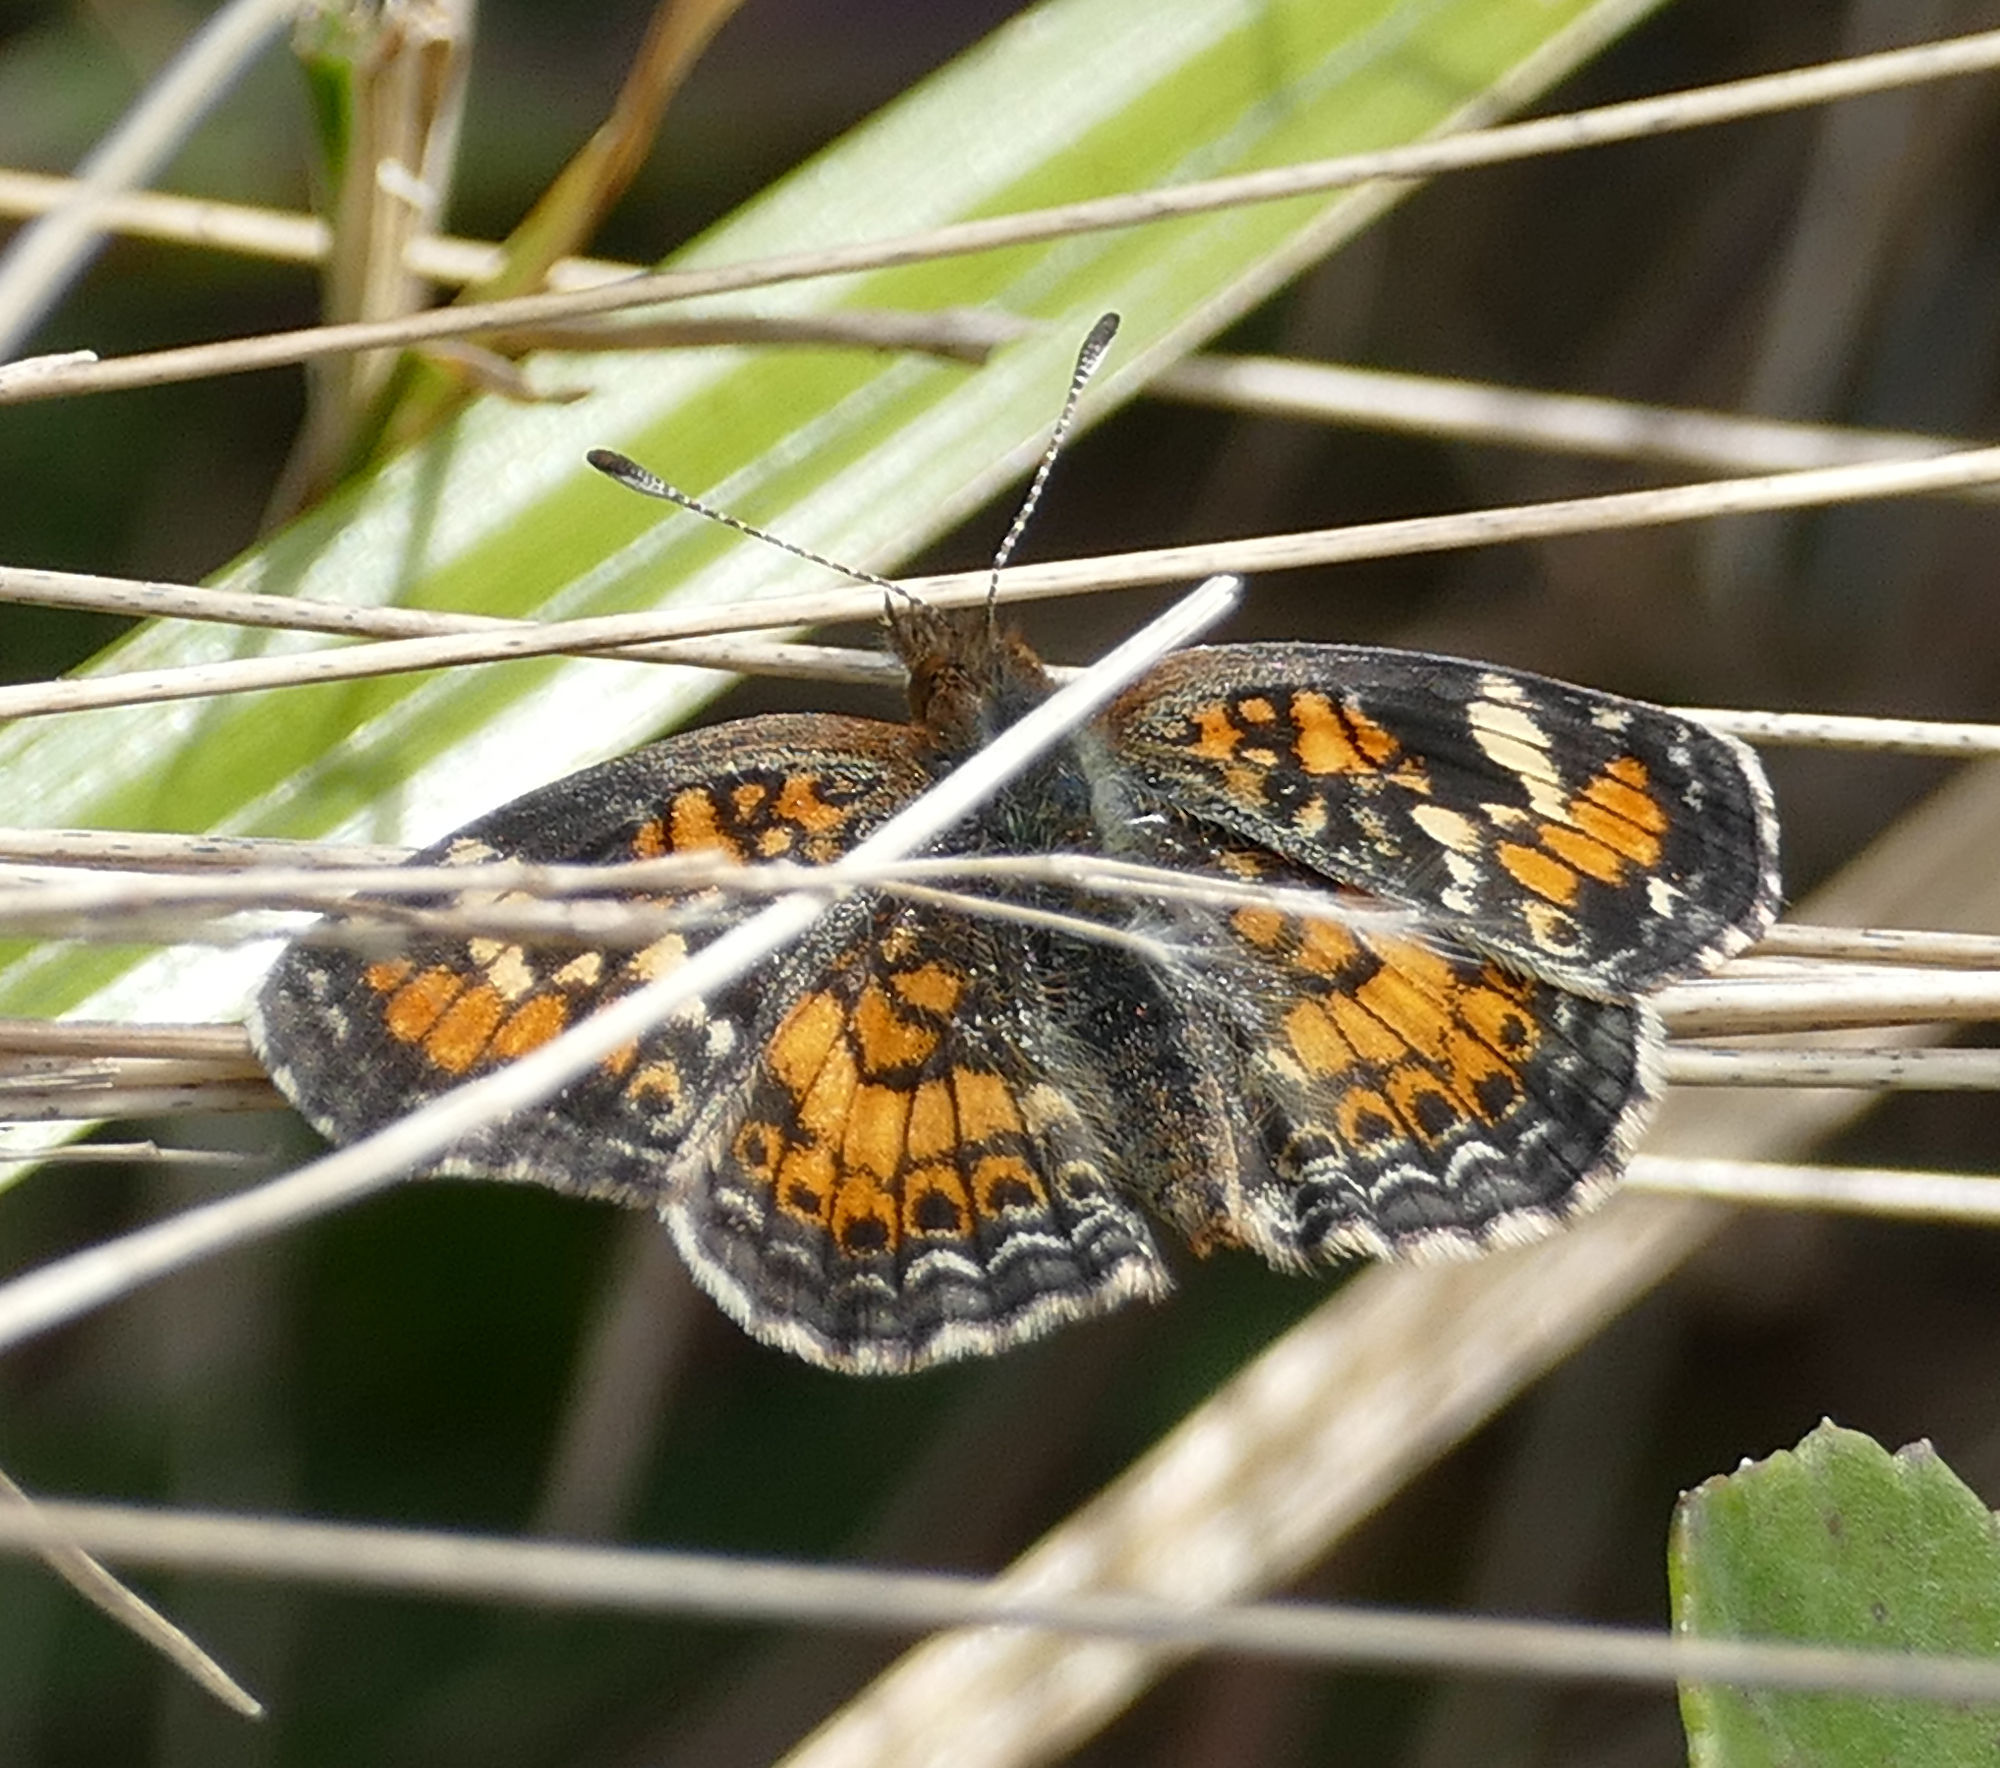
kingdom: Animalia
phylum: Arthropoda
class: Insecta
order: Lepidoptera
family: Nymphalidae
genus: Phyciodes
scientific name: Phyciodes phaon
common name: Phaon crescent
